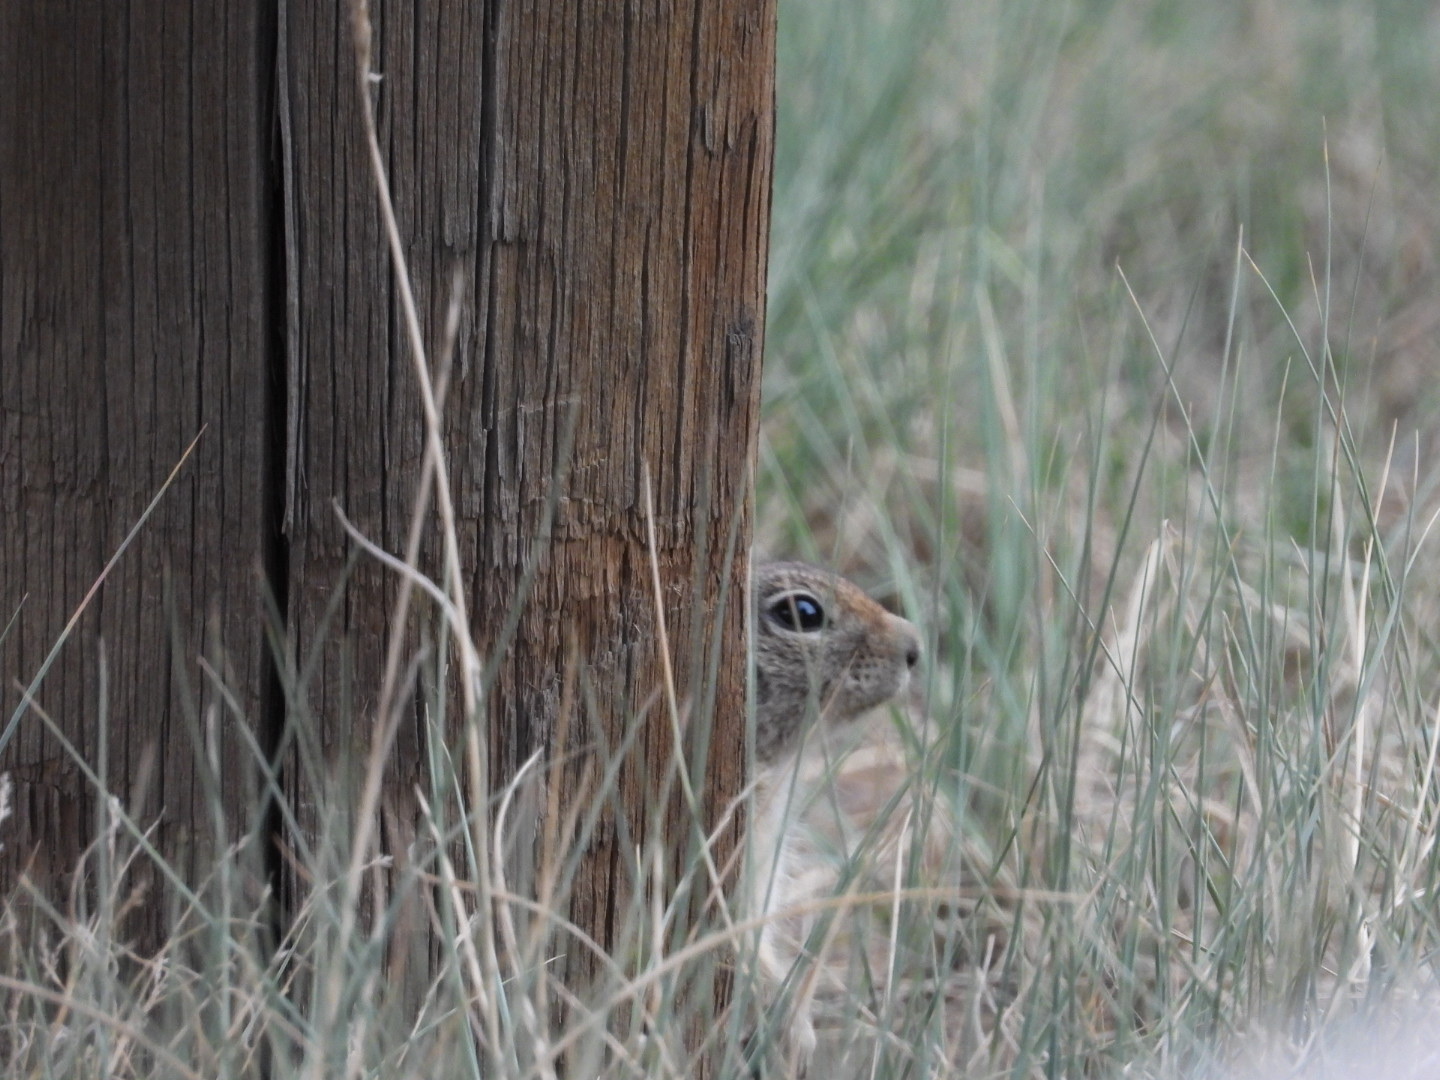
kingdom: Animalia
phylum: Chordata
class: Mammalia
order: Rodentia
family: Sciuridae
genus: Urocitellus
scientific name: Urocitellus elegans
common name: Wyoming ground squirrel
